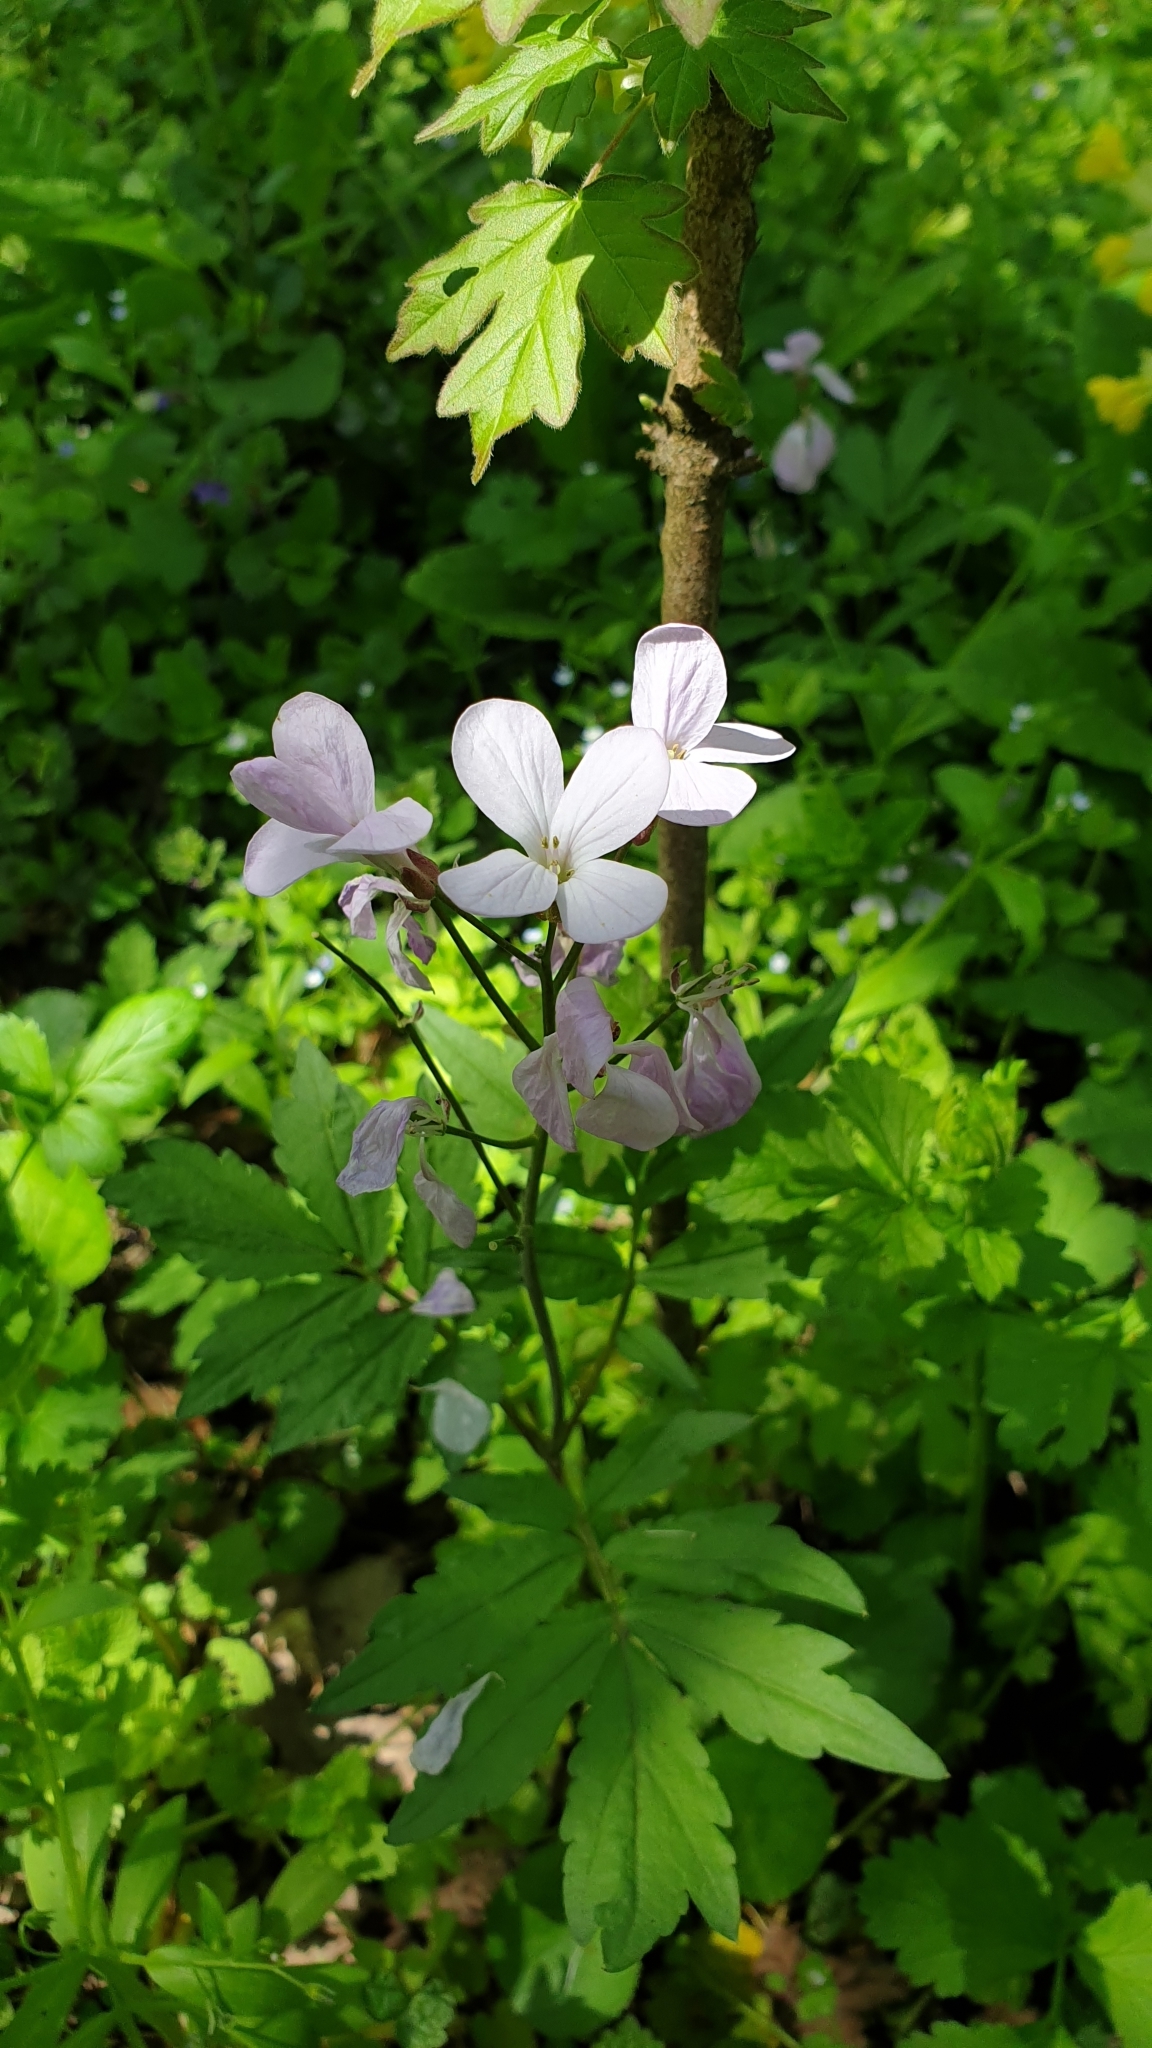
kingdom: Plantae
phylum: Tracheophyta
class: Magnoliopsida
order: Brassicales
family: Brassicaceae
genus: Cardamine
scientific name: Cardamine quinquefolia
